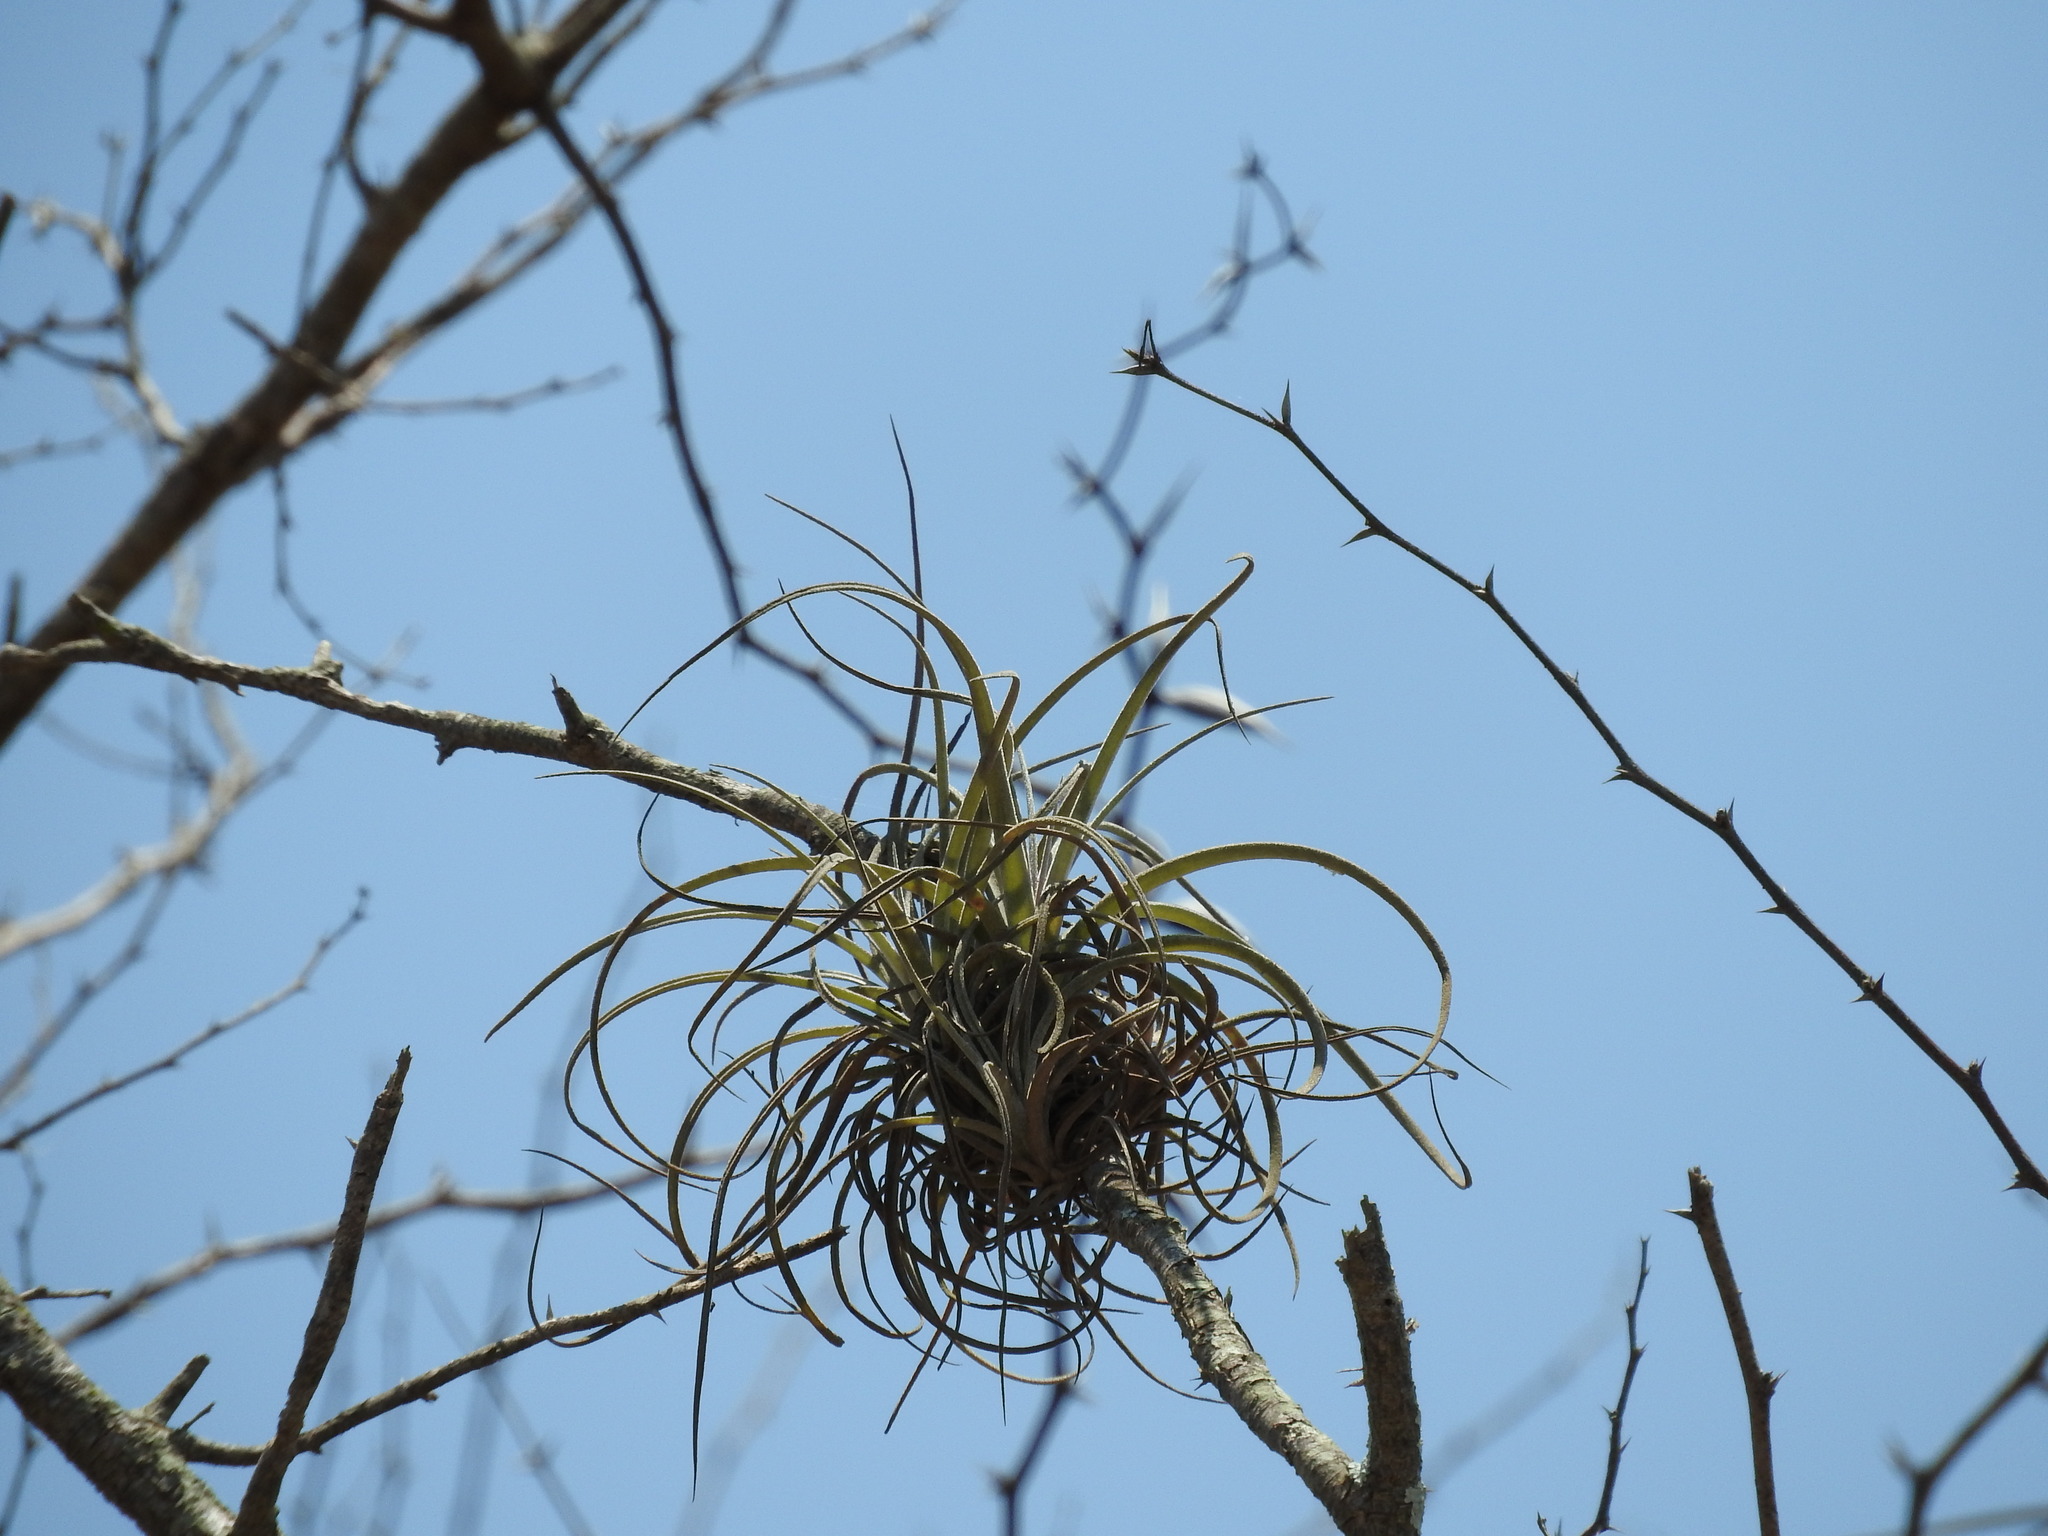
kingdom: Plantae
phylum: Tracheophyta
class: Liliopsida
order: Poales
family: Bromeliaceae
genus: Tillandsia
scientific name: Tillandsia exserta
